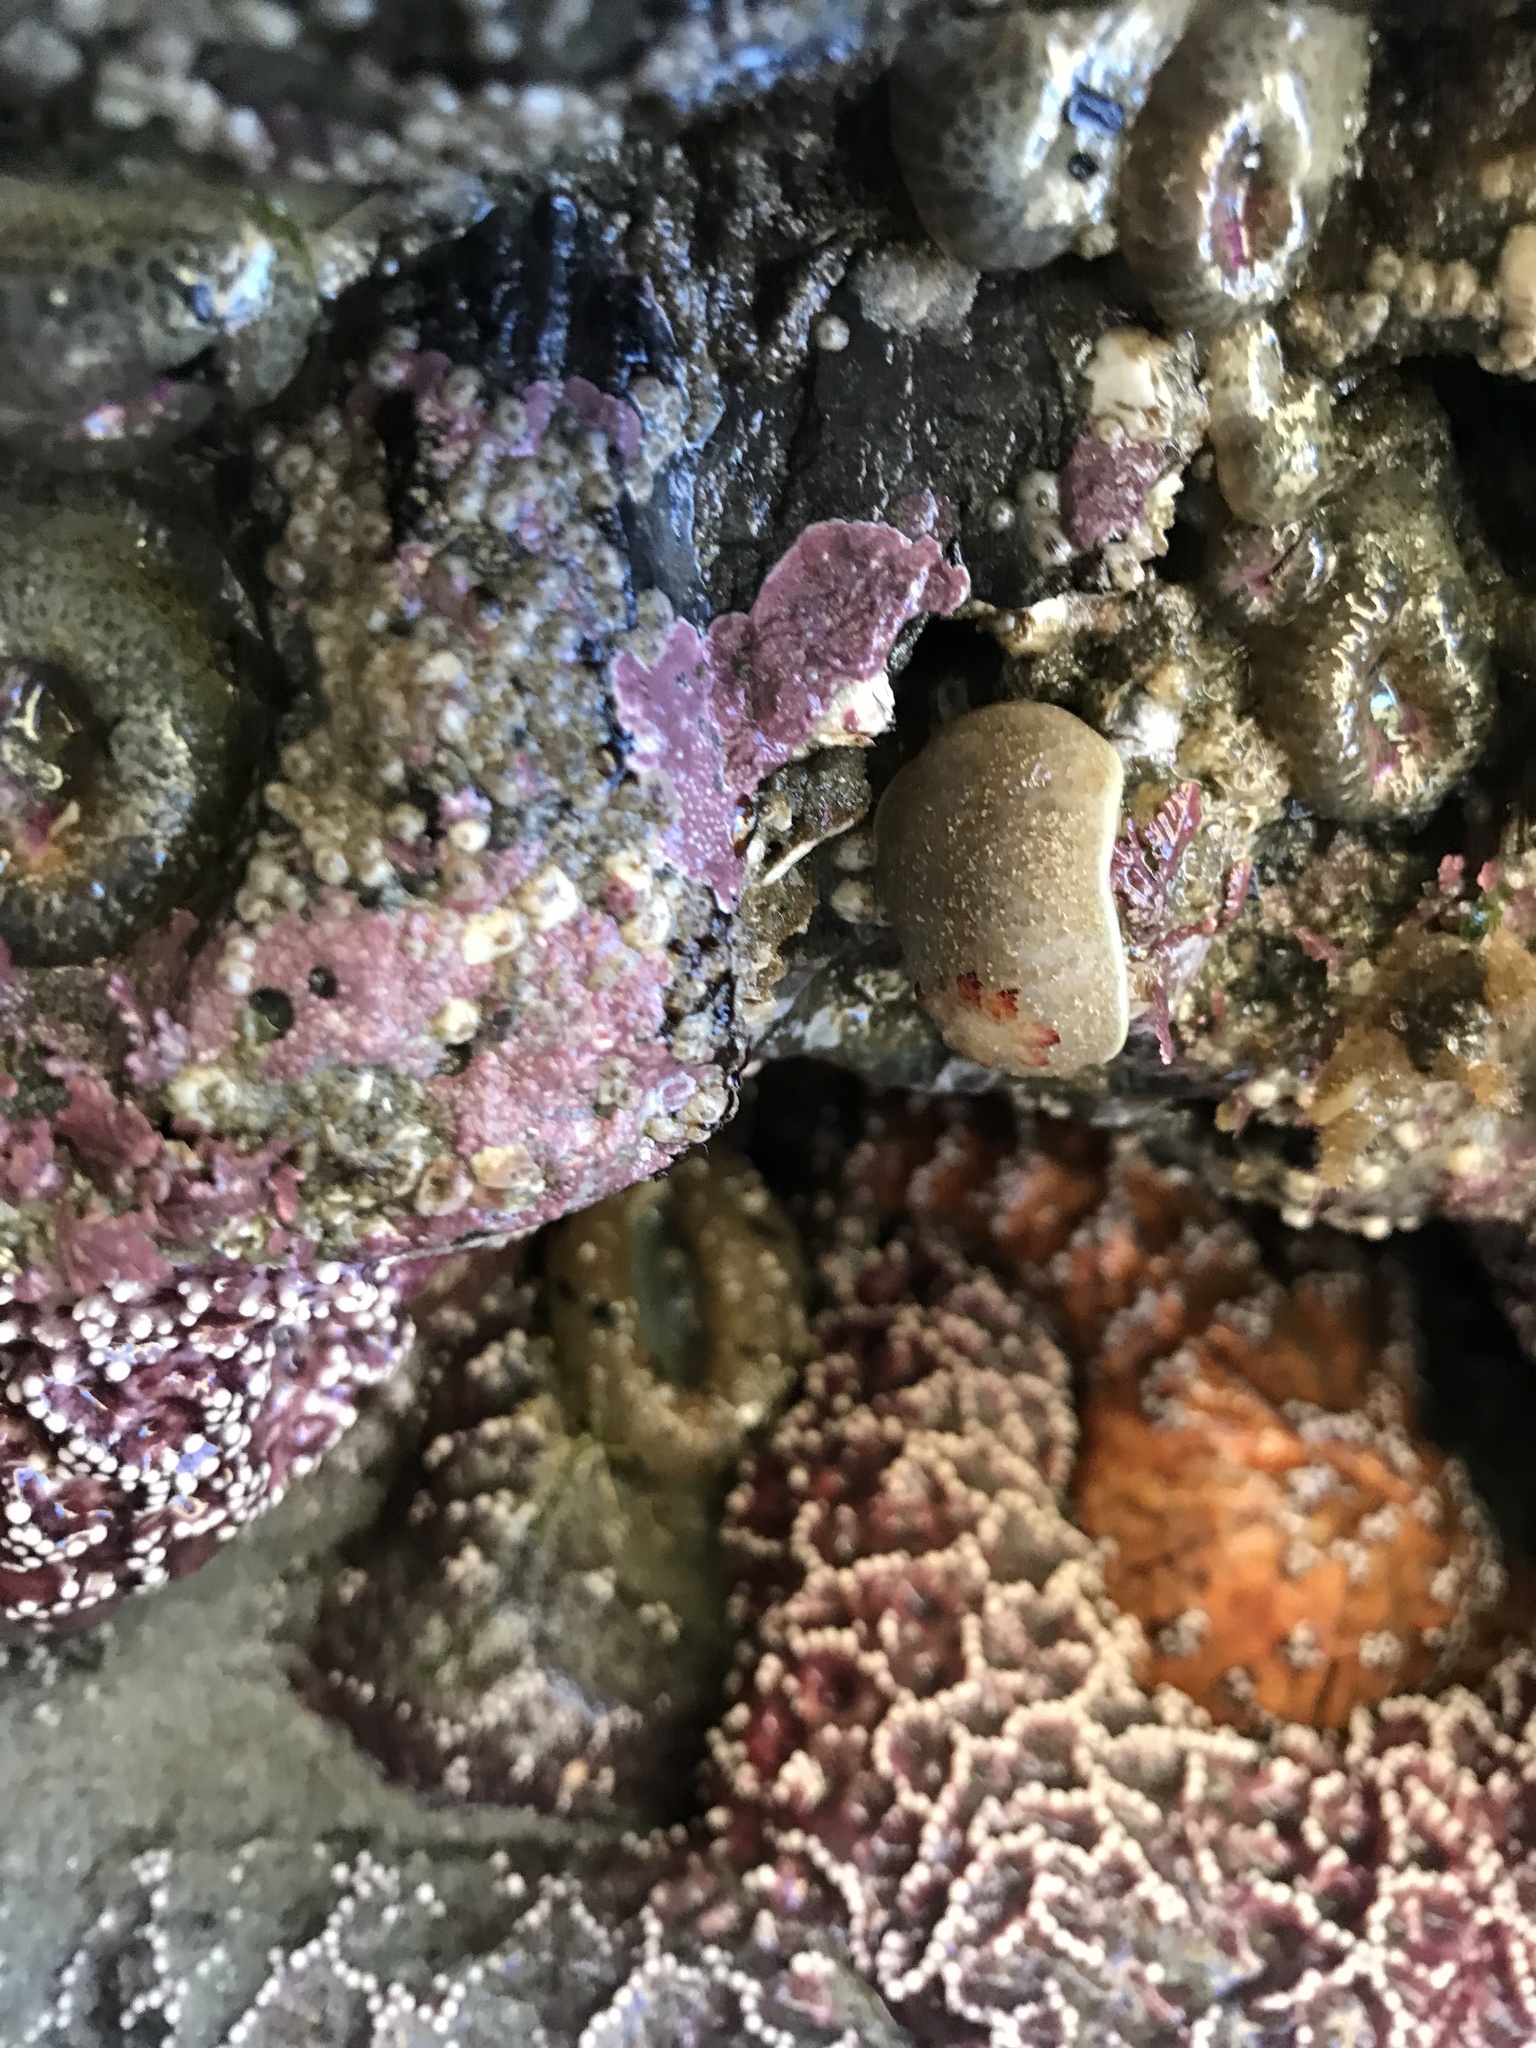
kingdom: Animalia
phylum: Mollusca
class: Gastropoda
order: Nudibranchia
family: Onchidorididae
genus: Acanthodoris
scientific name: Acanthodoris nanaimoensis
